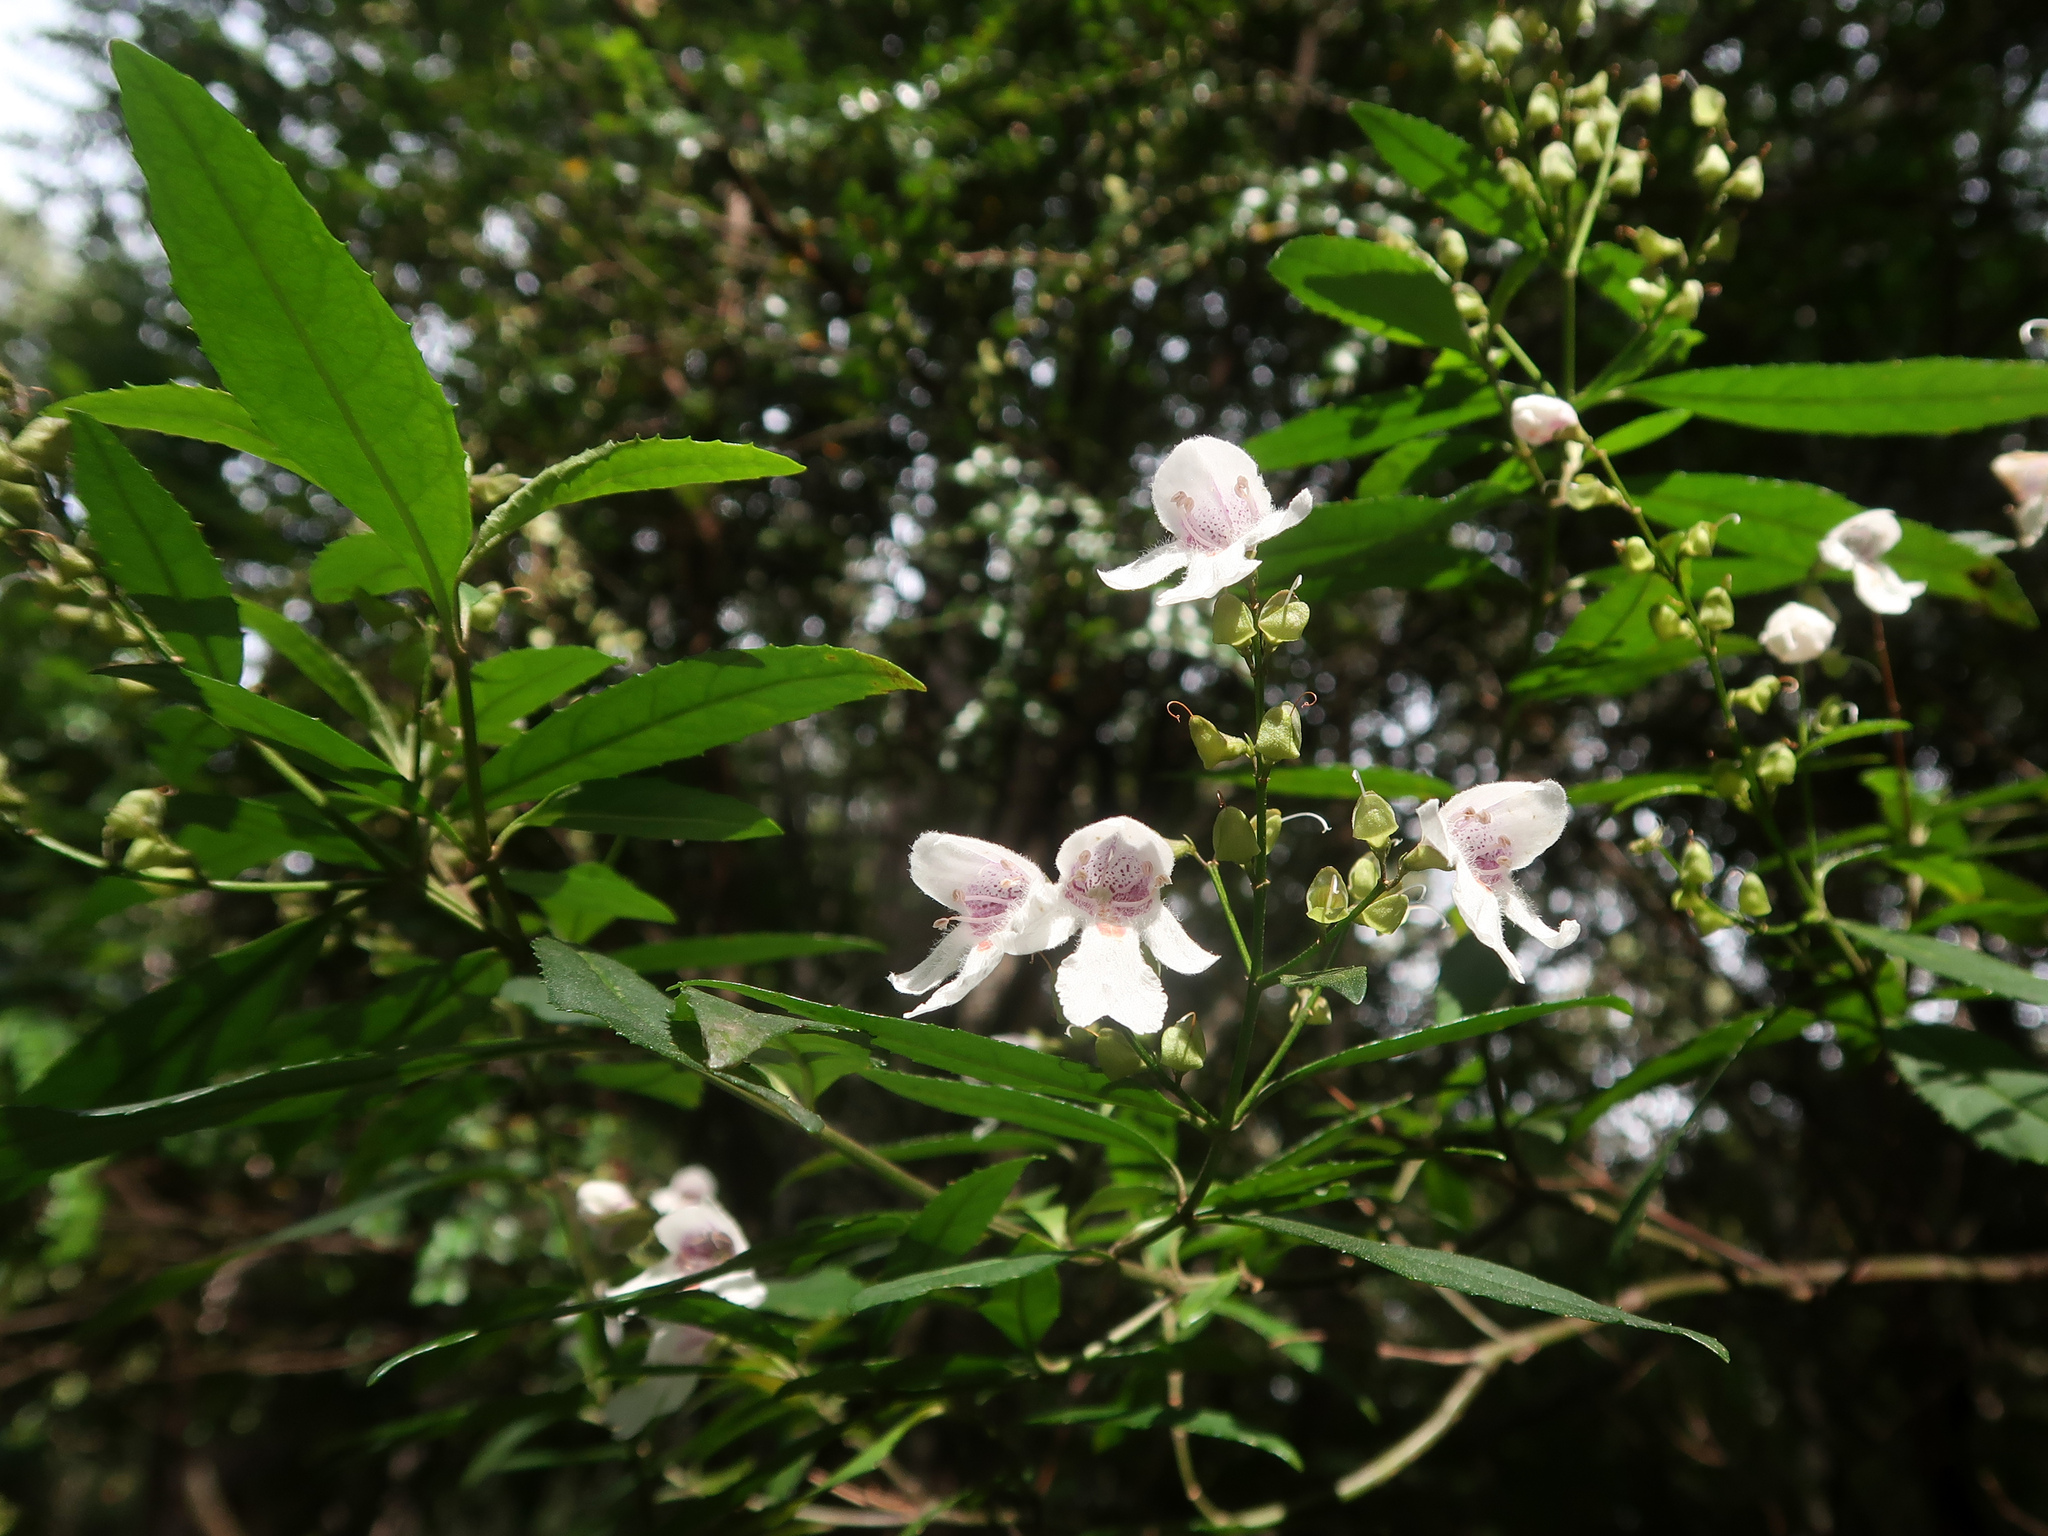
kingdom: Plantae
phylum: Tracheophyta
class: Magnoliopsida
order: Lamiales
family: Lamiaceae
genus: Prostanthera
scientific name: Prostanthera lasianthos
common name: Mountain-lilac
